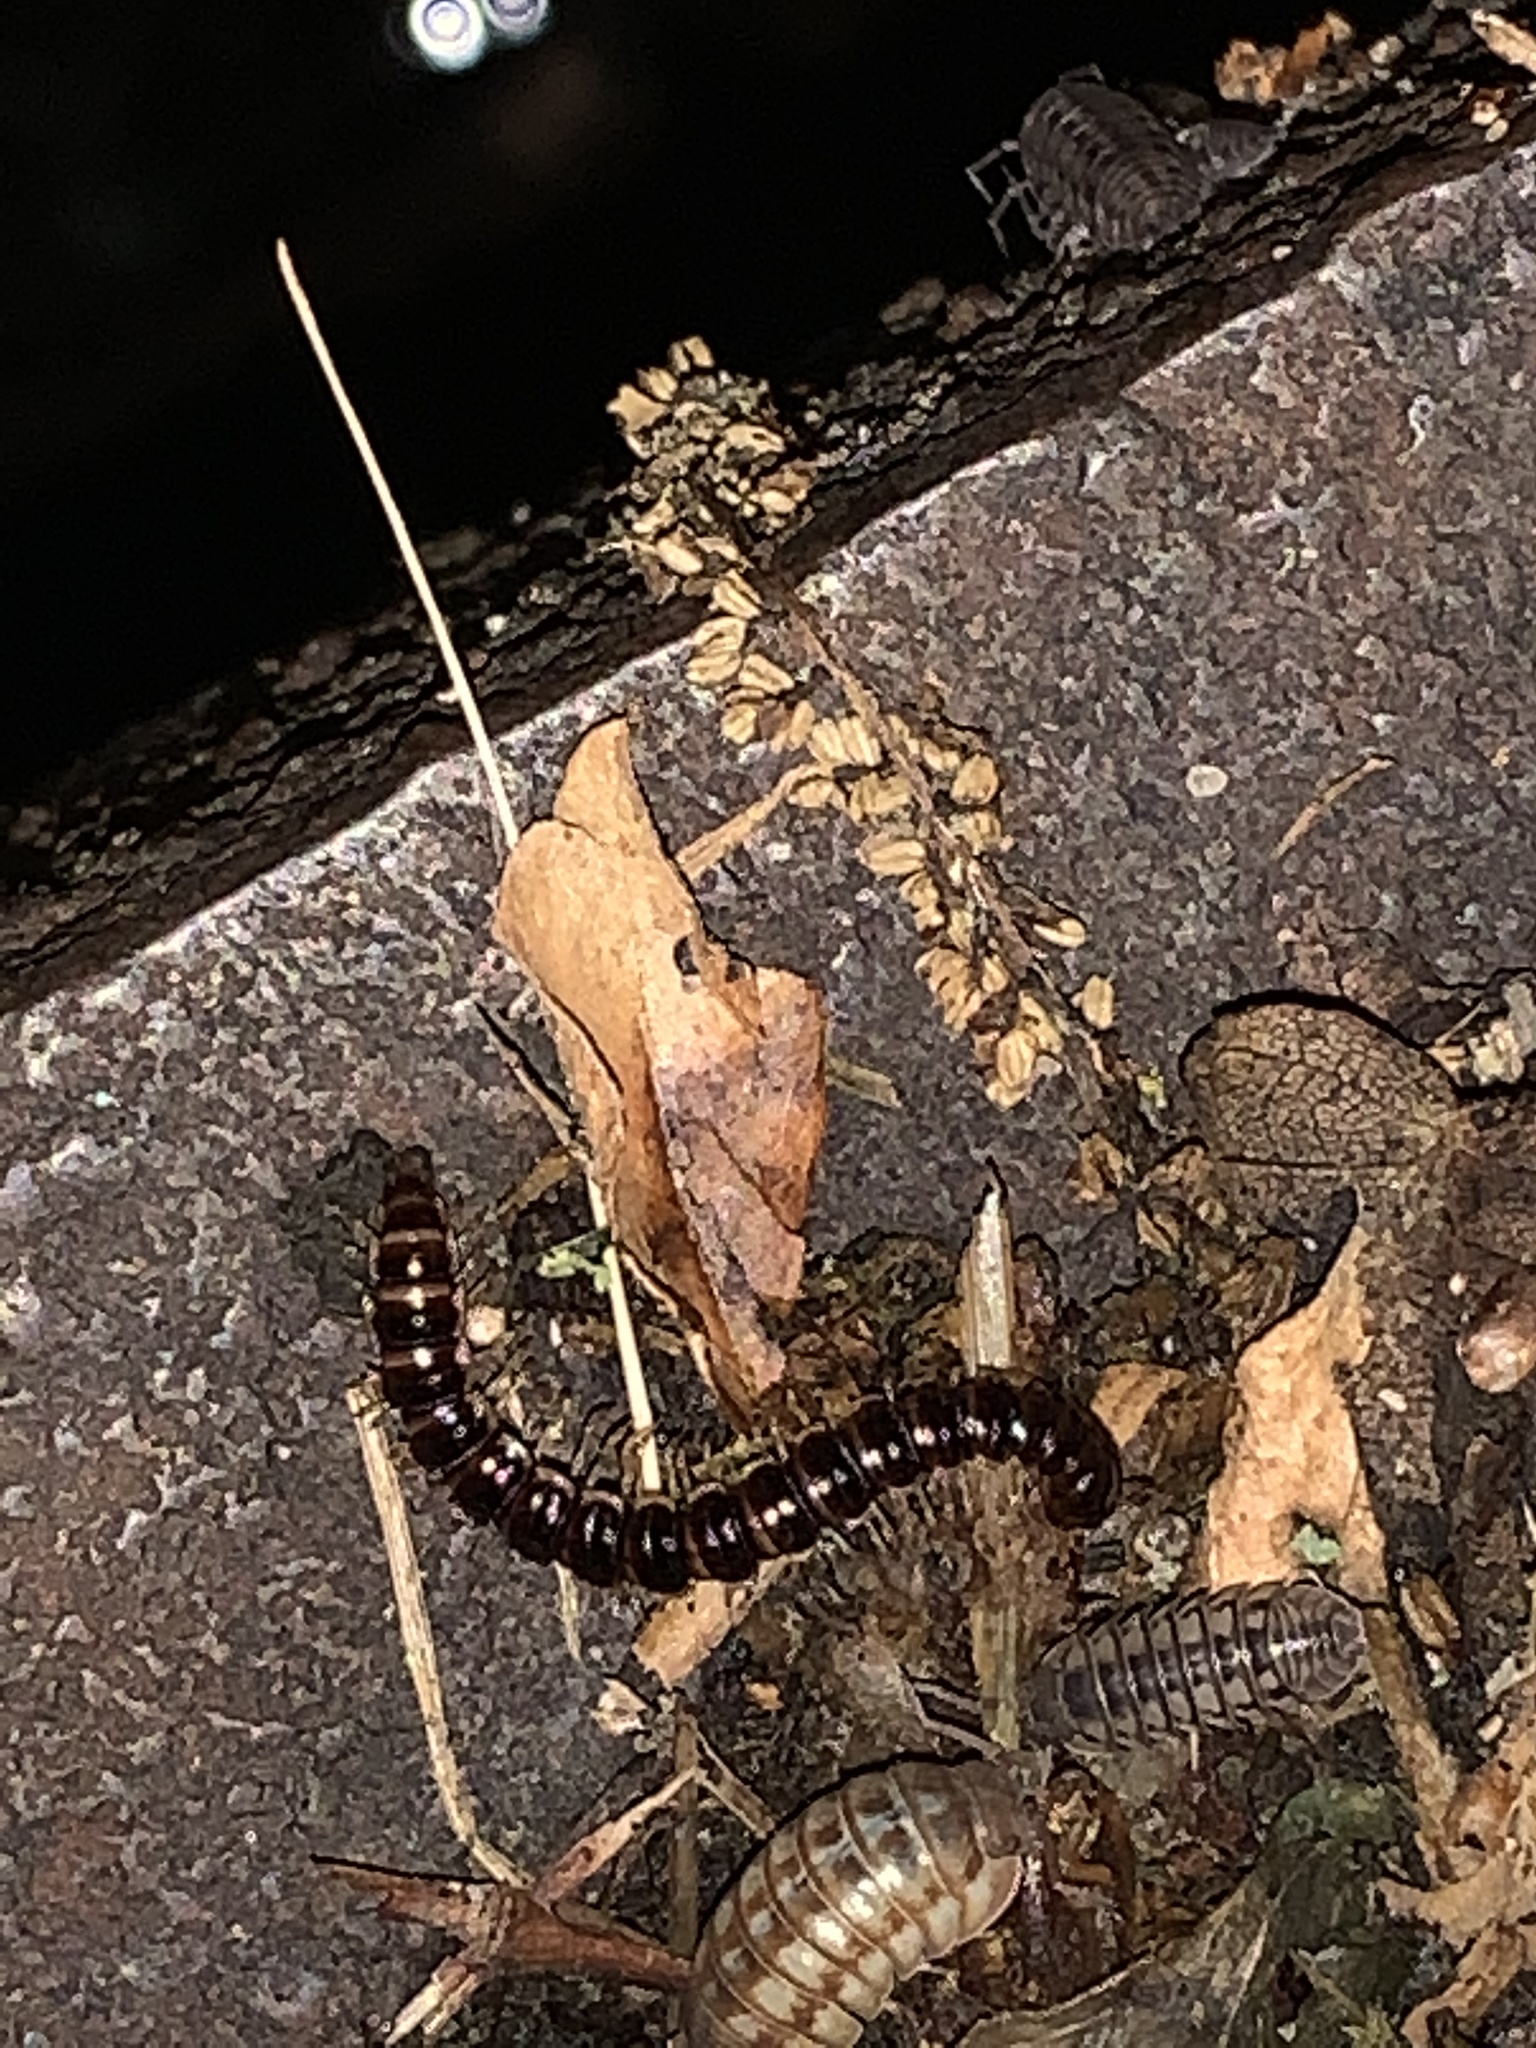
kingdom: Animalia
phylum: Arthropoda
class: Diplopoda
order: Polydesmida
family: Paradoxosomatidae
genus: Oxidus
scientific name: Oxidus gracilis
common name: Greenhouse millipede
